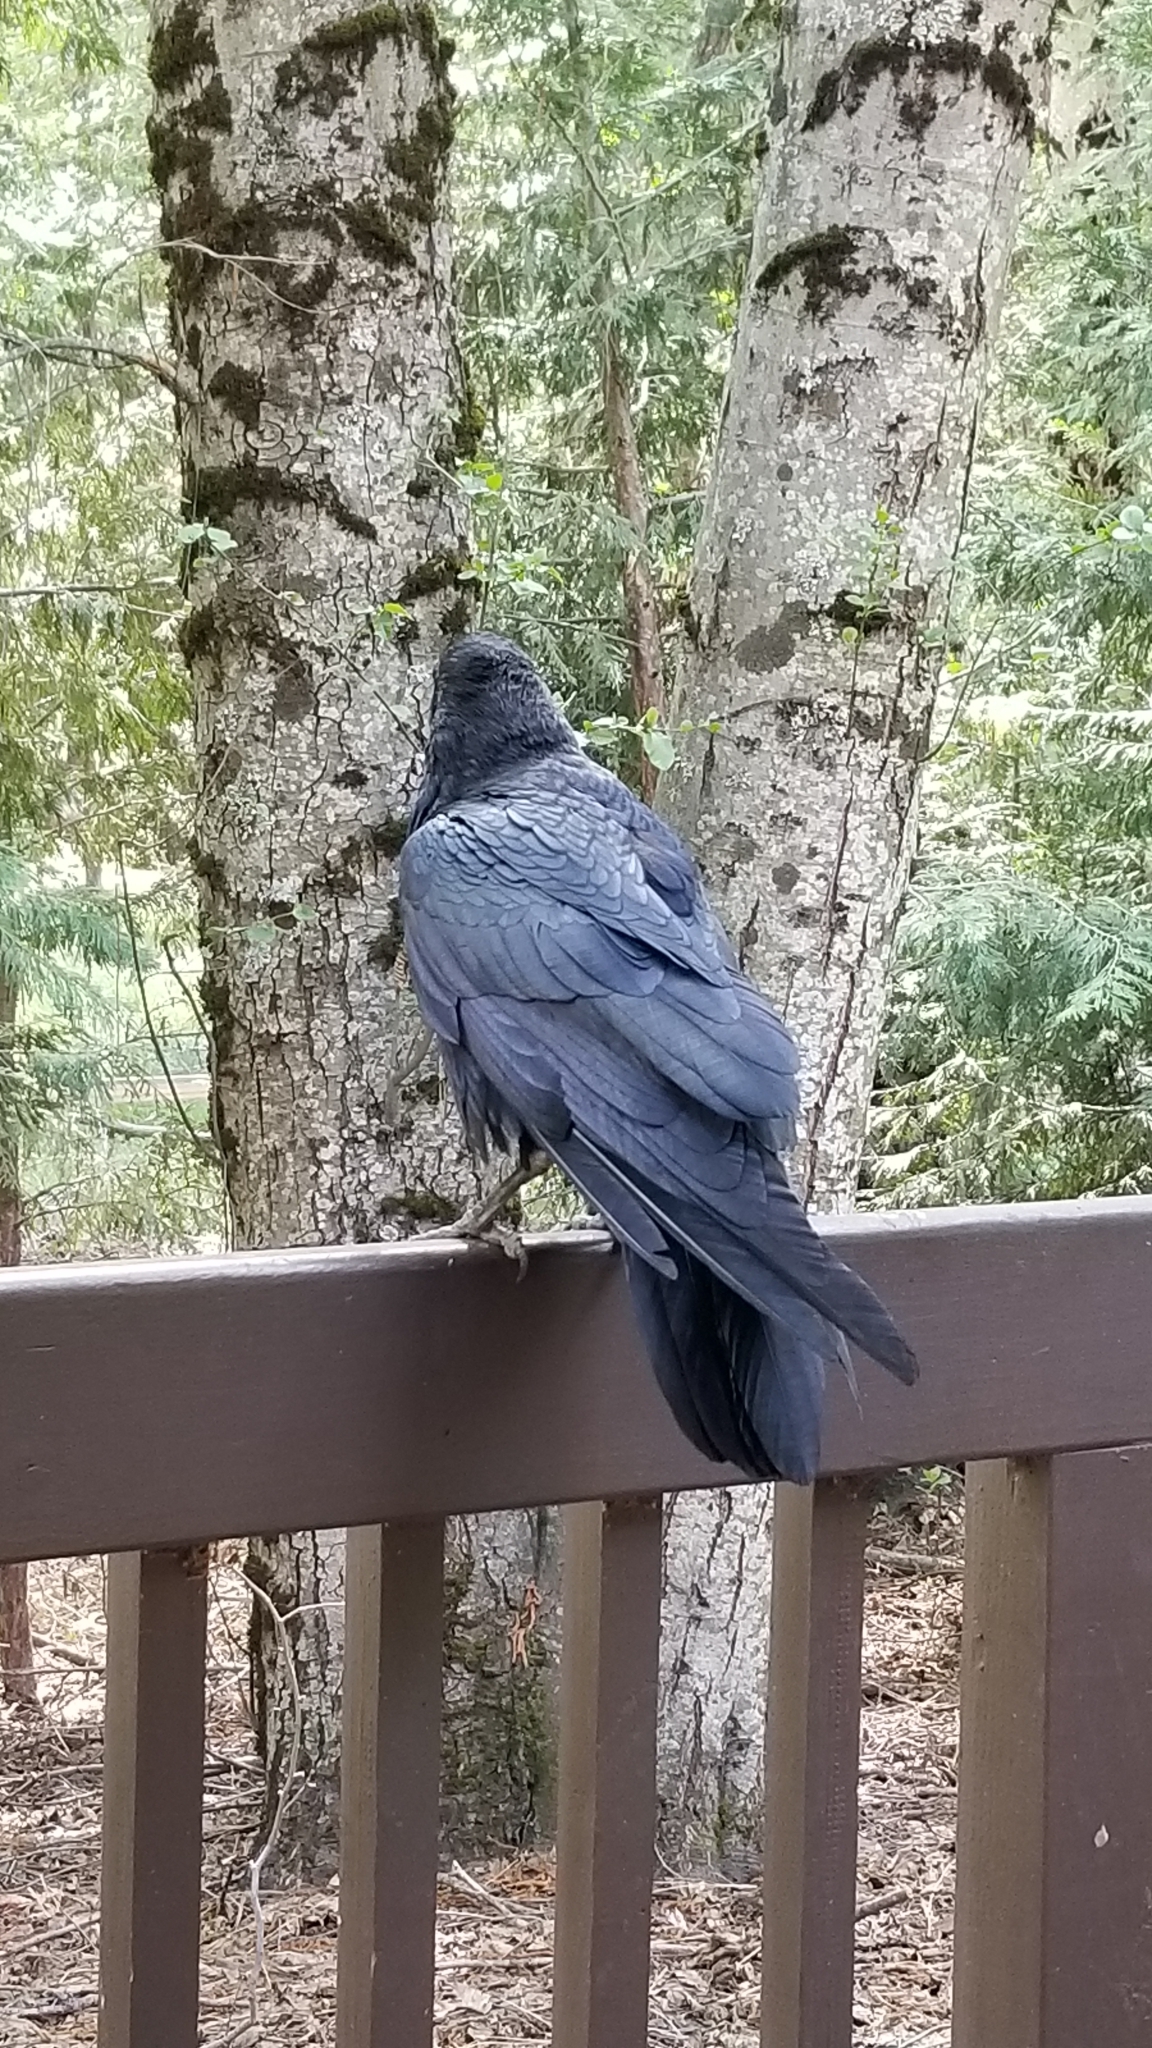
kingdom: Animalia
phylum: Chordata
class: Aves
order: Passeriformes
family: Corvidae
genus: Corvus
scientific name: Corvus corax
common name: Common raven
